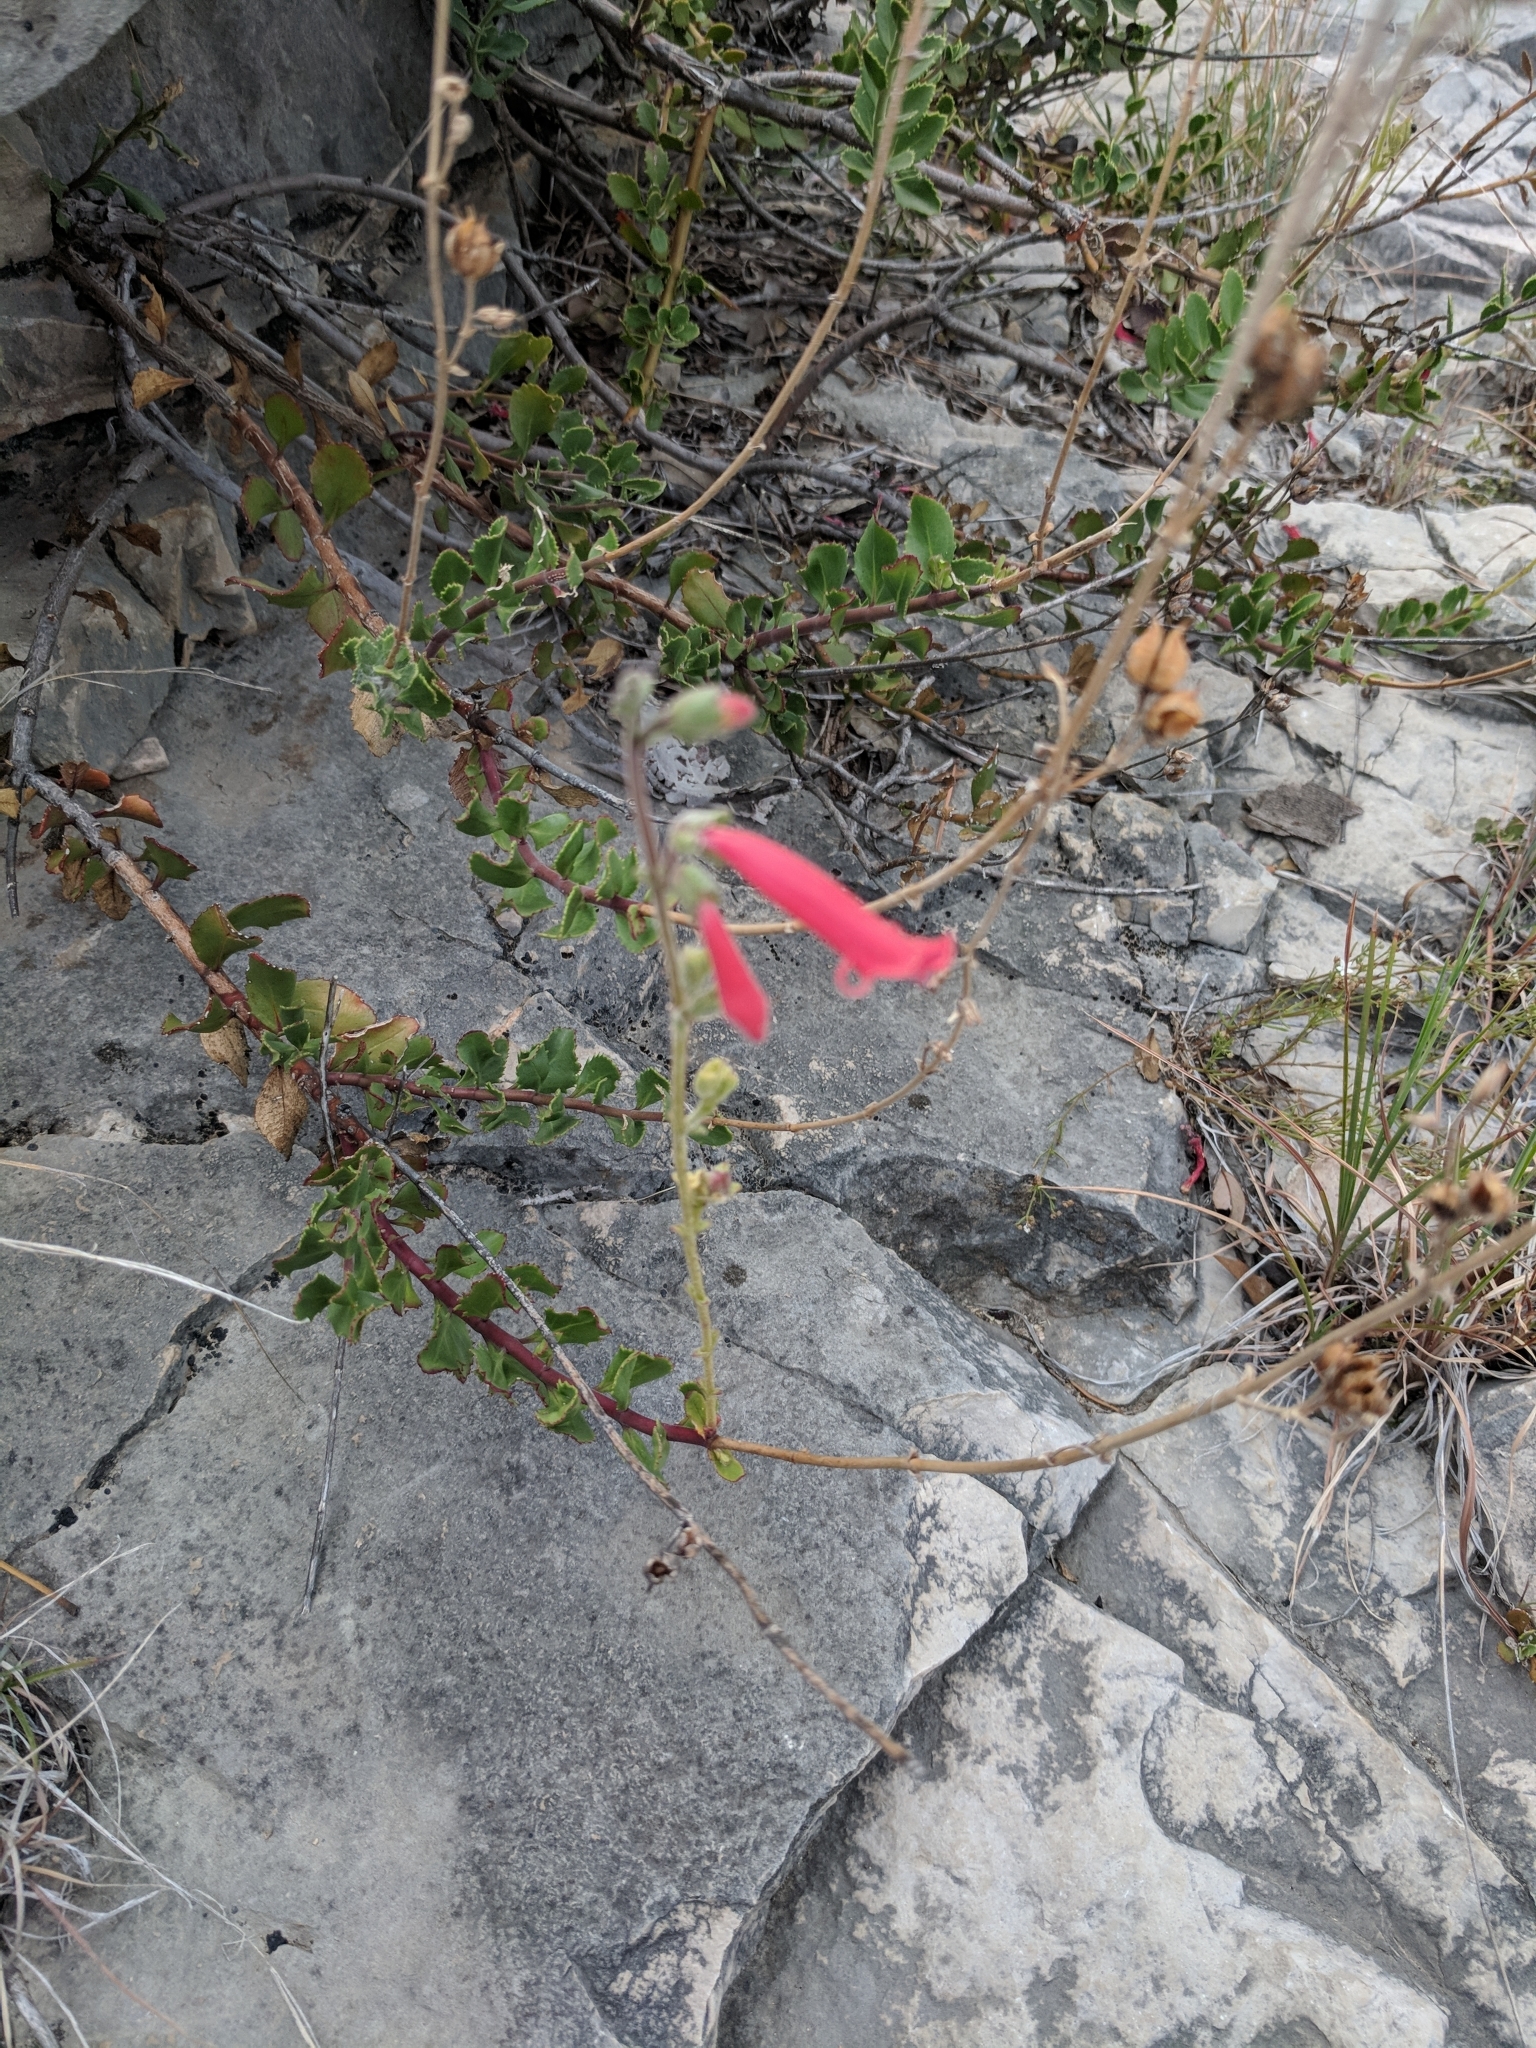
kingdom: Plantae
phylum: Tracheophyta
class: Magnoliopsida
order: Lamiales
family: Plantaginaceae
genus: Penstemon
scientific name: Penstemon baccharifolius
